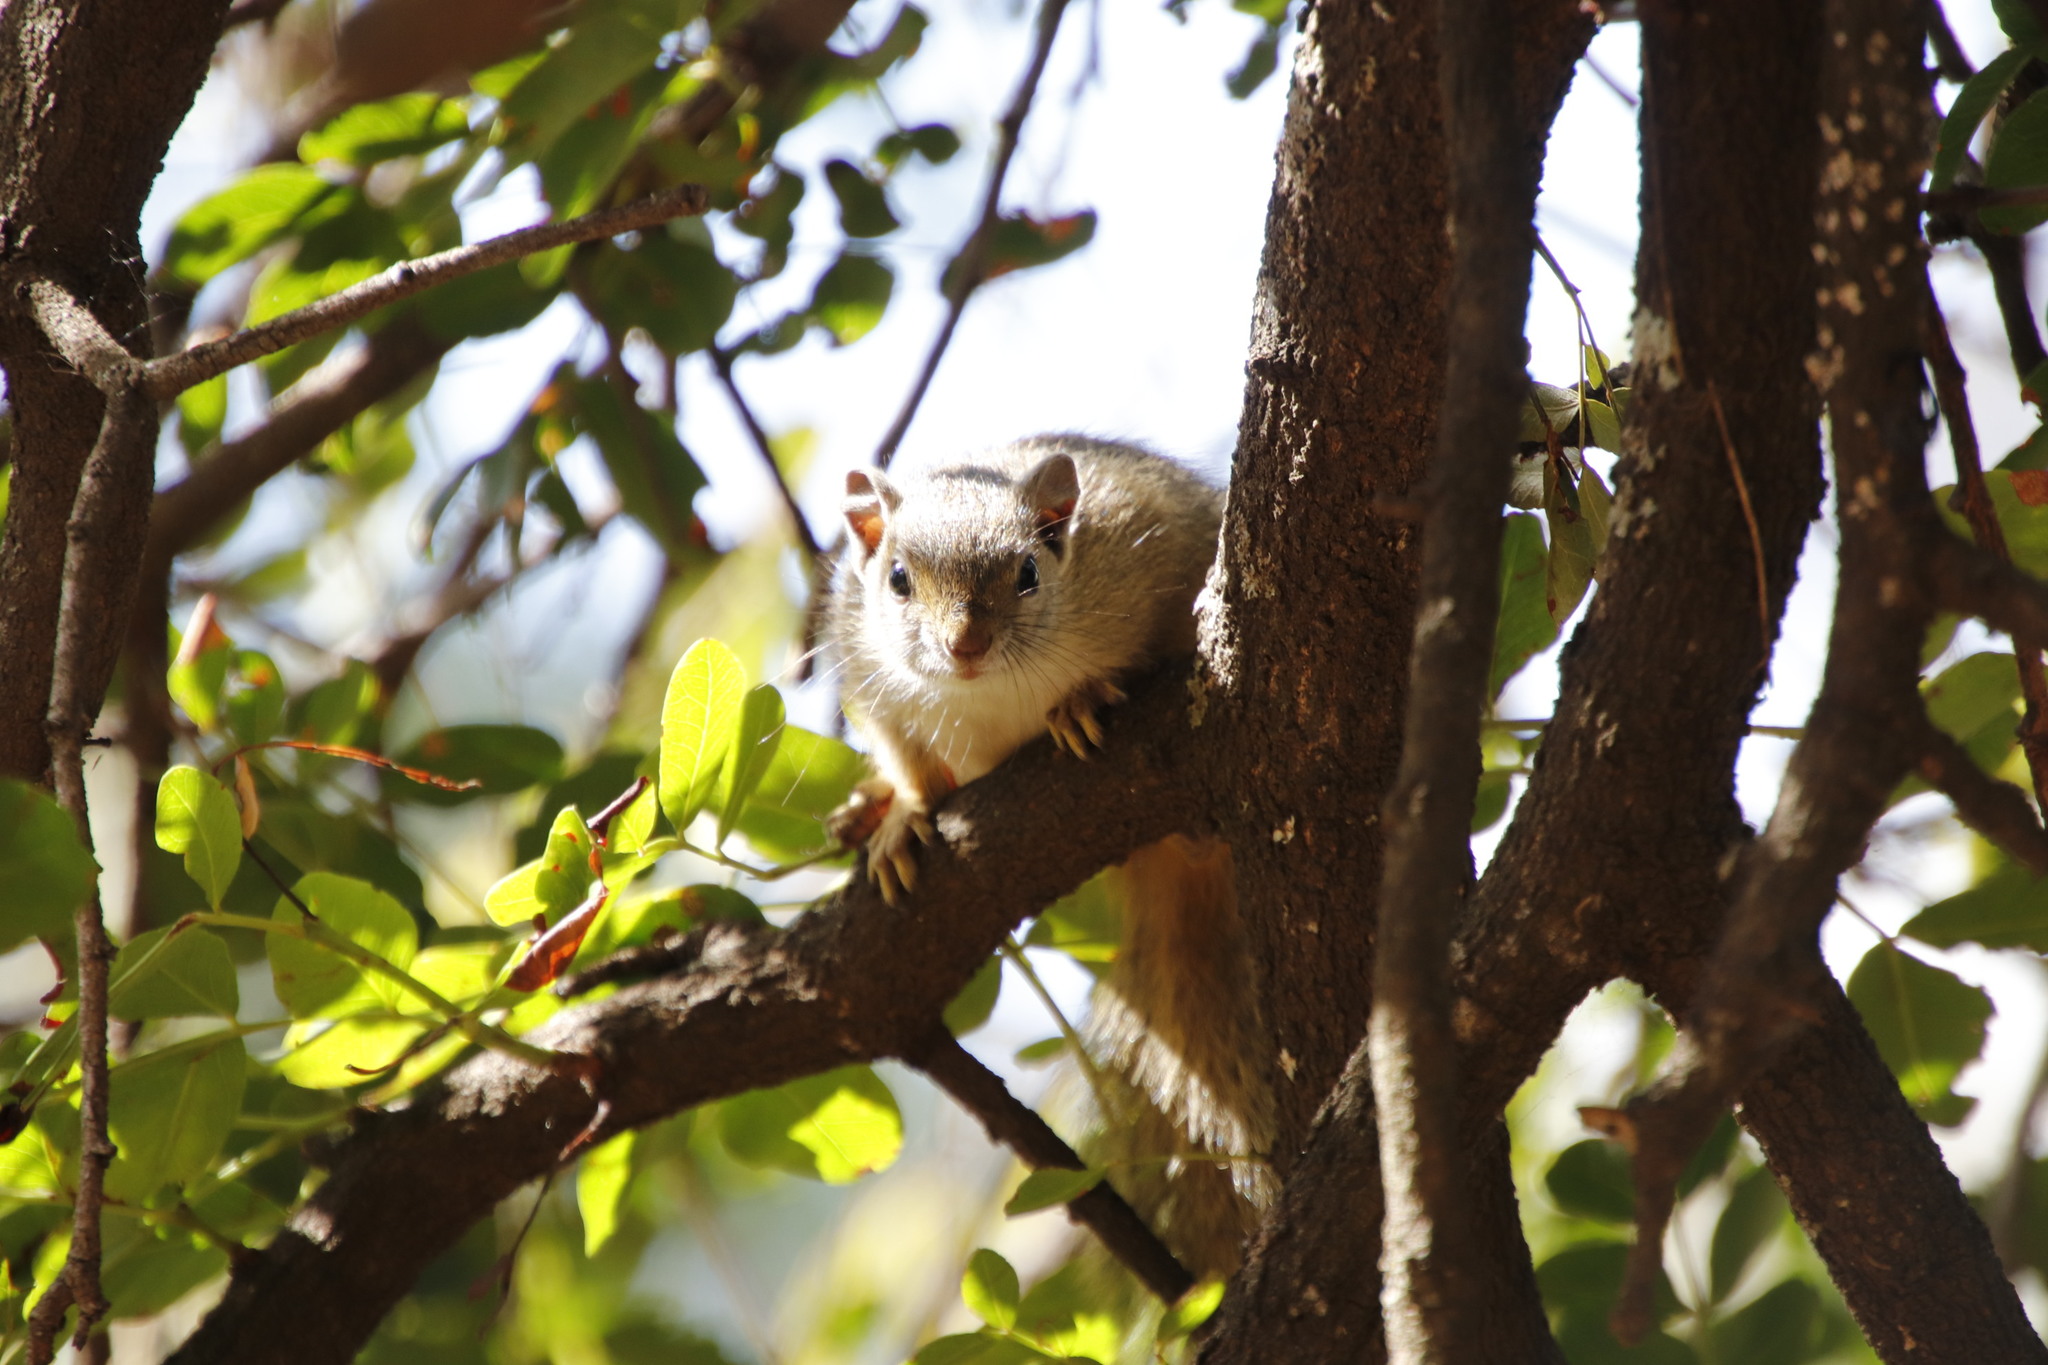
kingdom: Animalia
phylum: Chordata
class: Mammalia
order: Rodentia
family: Sciuridae
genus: Paraxerus
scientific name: Paraxerus cepapi
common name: Smith's bush squirrel
